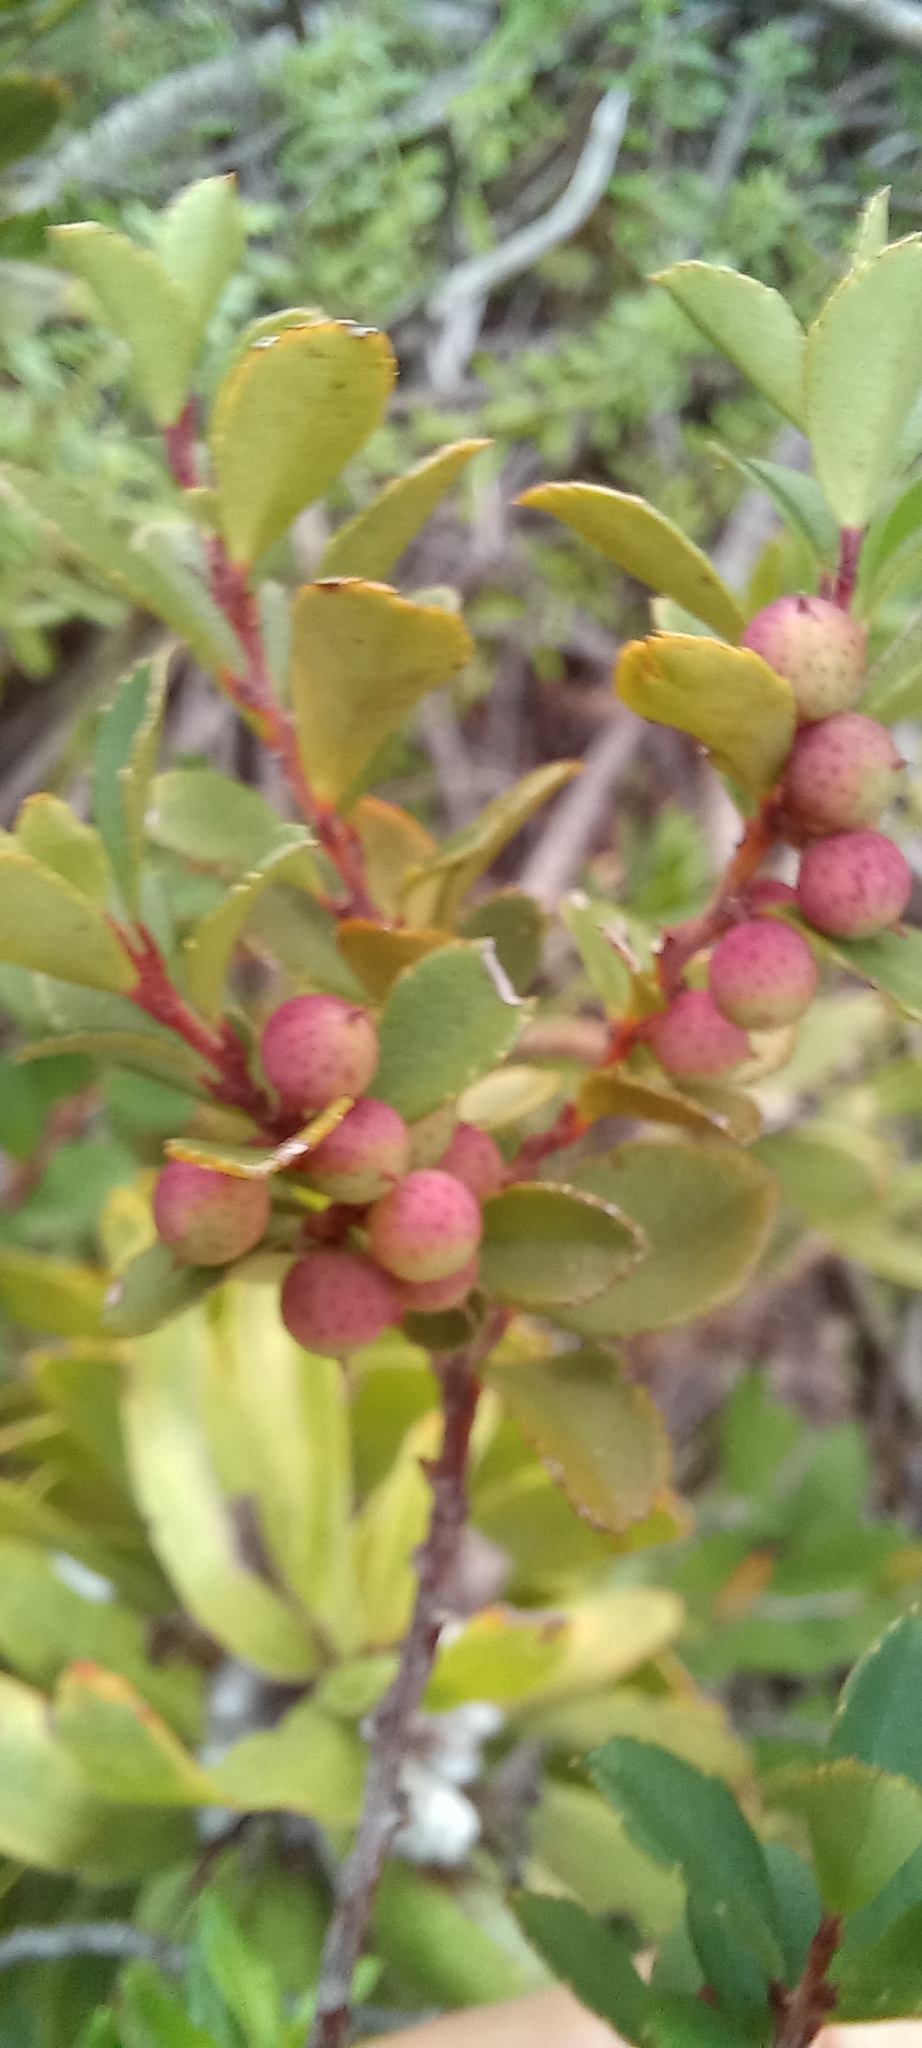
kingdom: Plantae
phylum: Tracheophyta
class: Magnoliopsida
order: Ericales
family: Primulaceae
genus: Myrsine
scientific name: Myrsine africana
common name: African-boxwood
